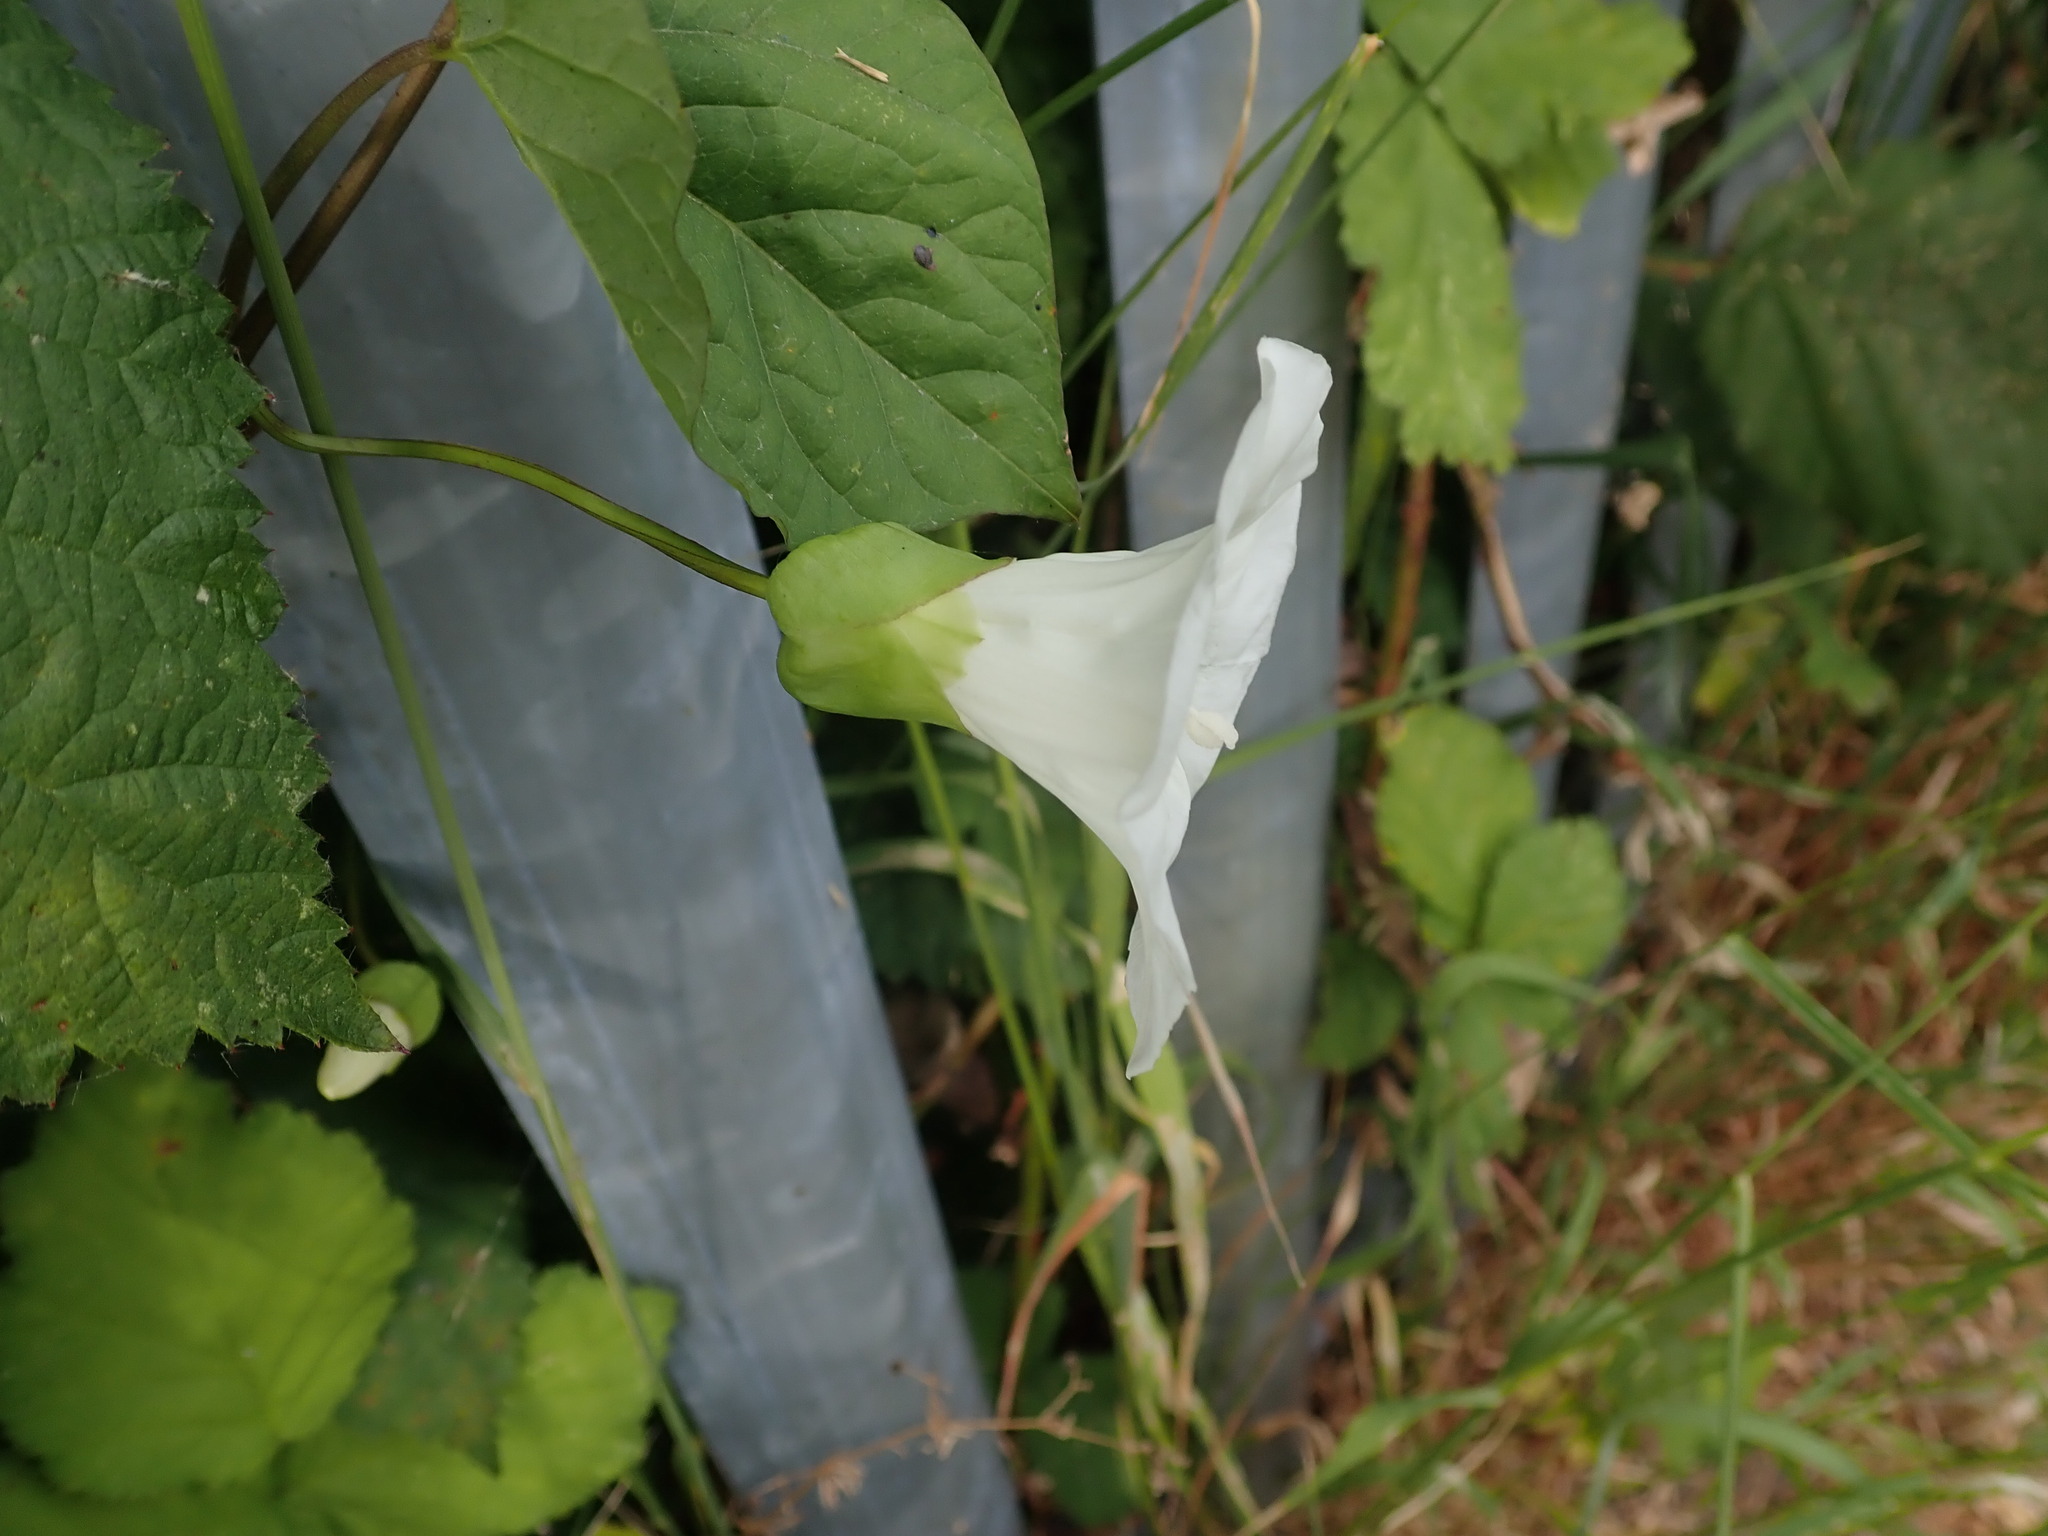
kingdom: Plantae
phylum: Tracheophyta
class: Magnoliopsida
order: Solanales
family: Convolvulaceae
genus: Calystegia
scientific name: Calystegia lucana
